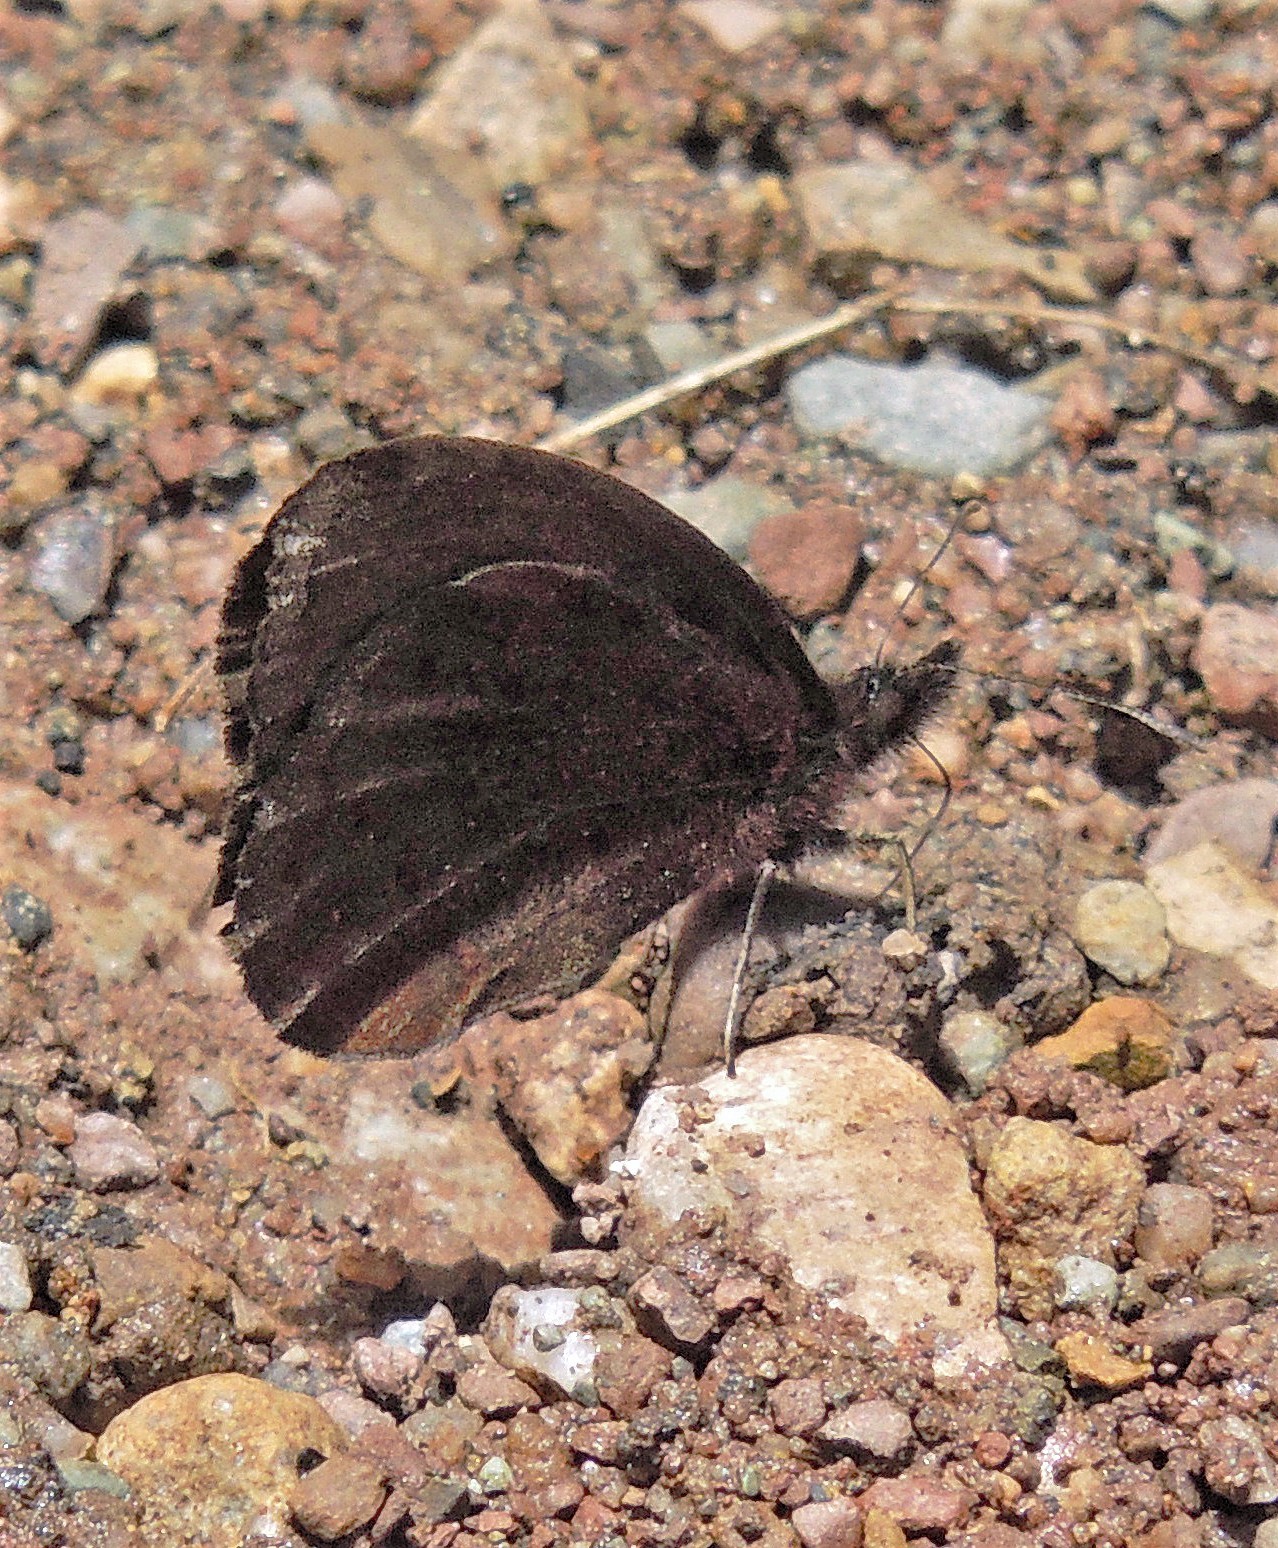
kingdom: Animalia
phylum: Arthropoda
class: Insecta
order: Lepidoptera
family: Nymphalidae
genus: Pedaliodes
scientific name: Pedaliodes ferratilis
